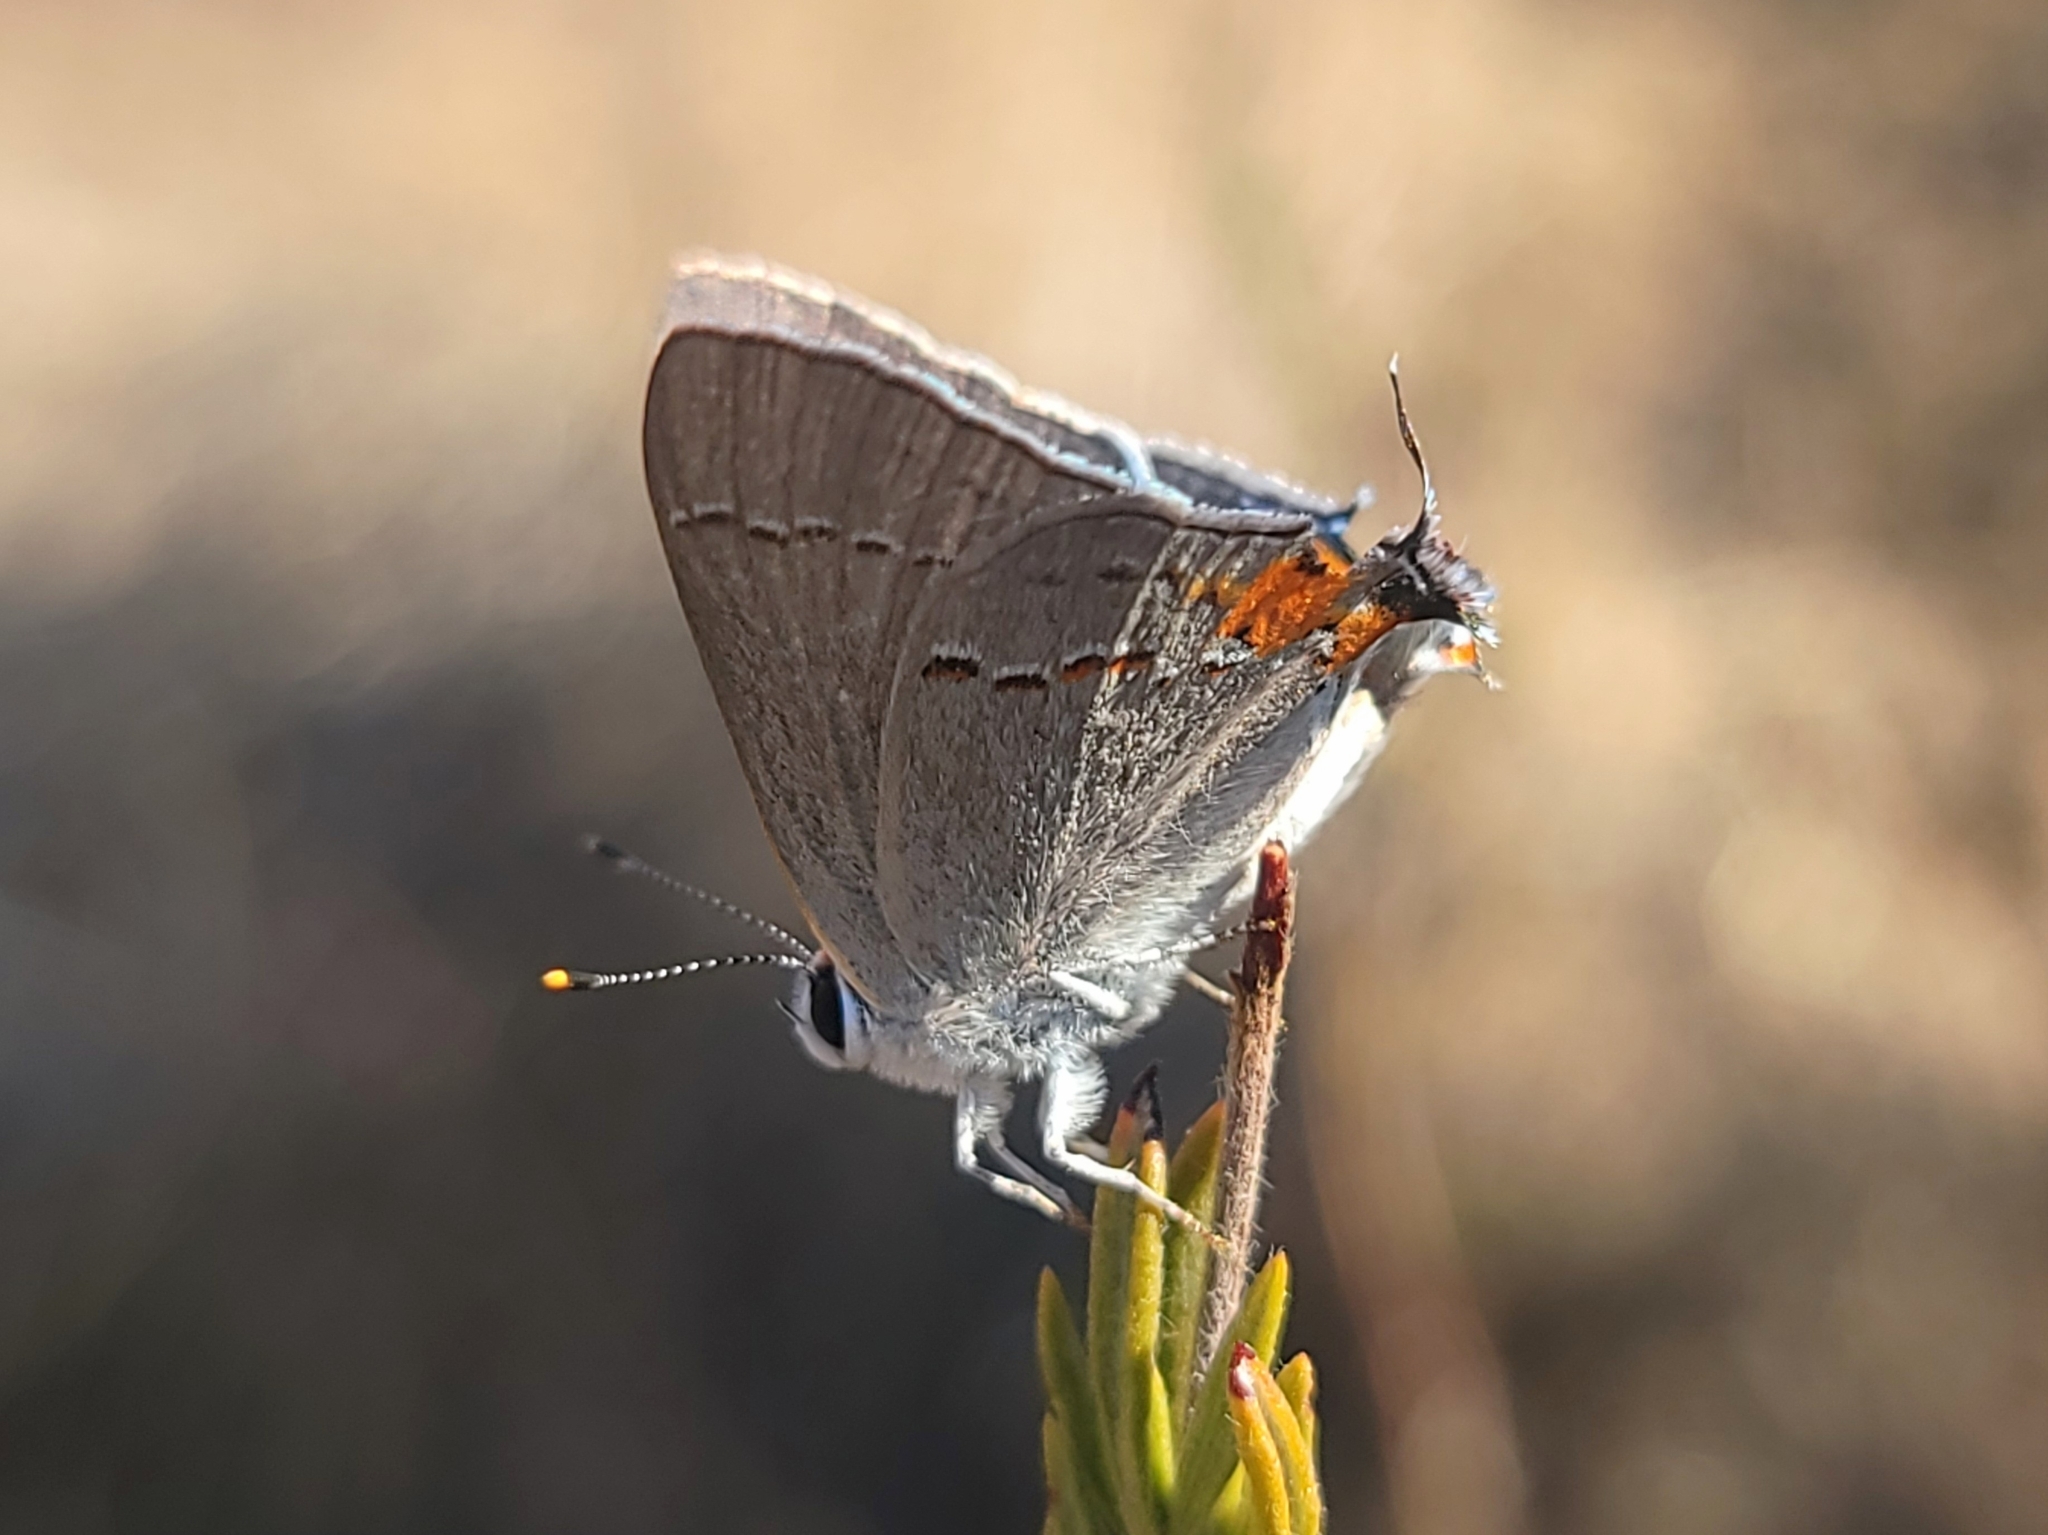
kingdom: Animalia
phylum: Arthropoda
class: Insecta
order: Lepidoptera
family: Lycaenidae
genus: Strymon
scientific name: Strymon melinus
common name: Gray hairstreak
